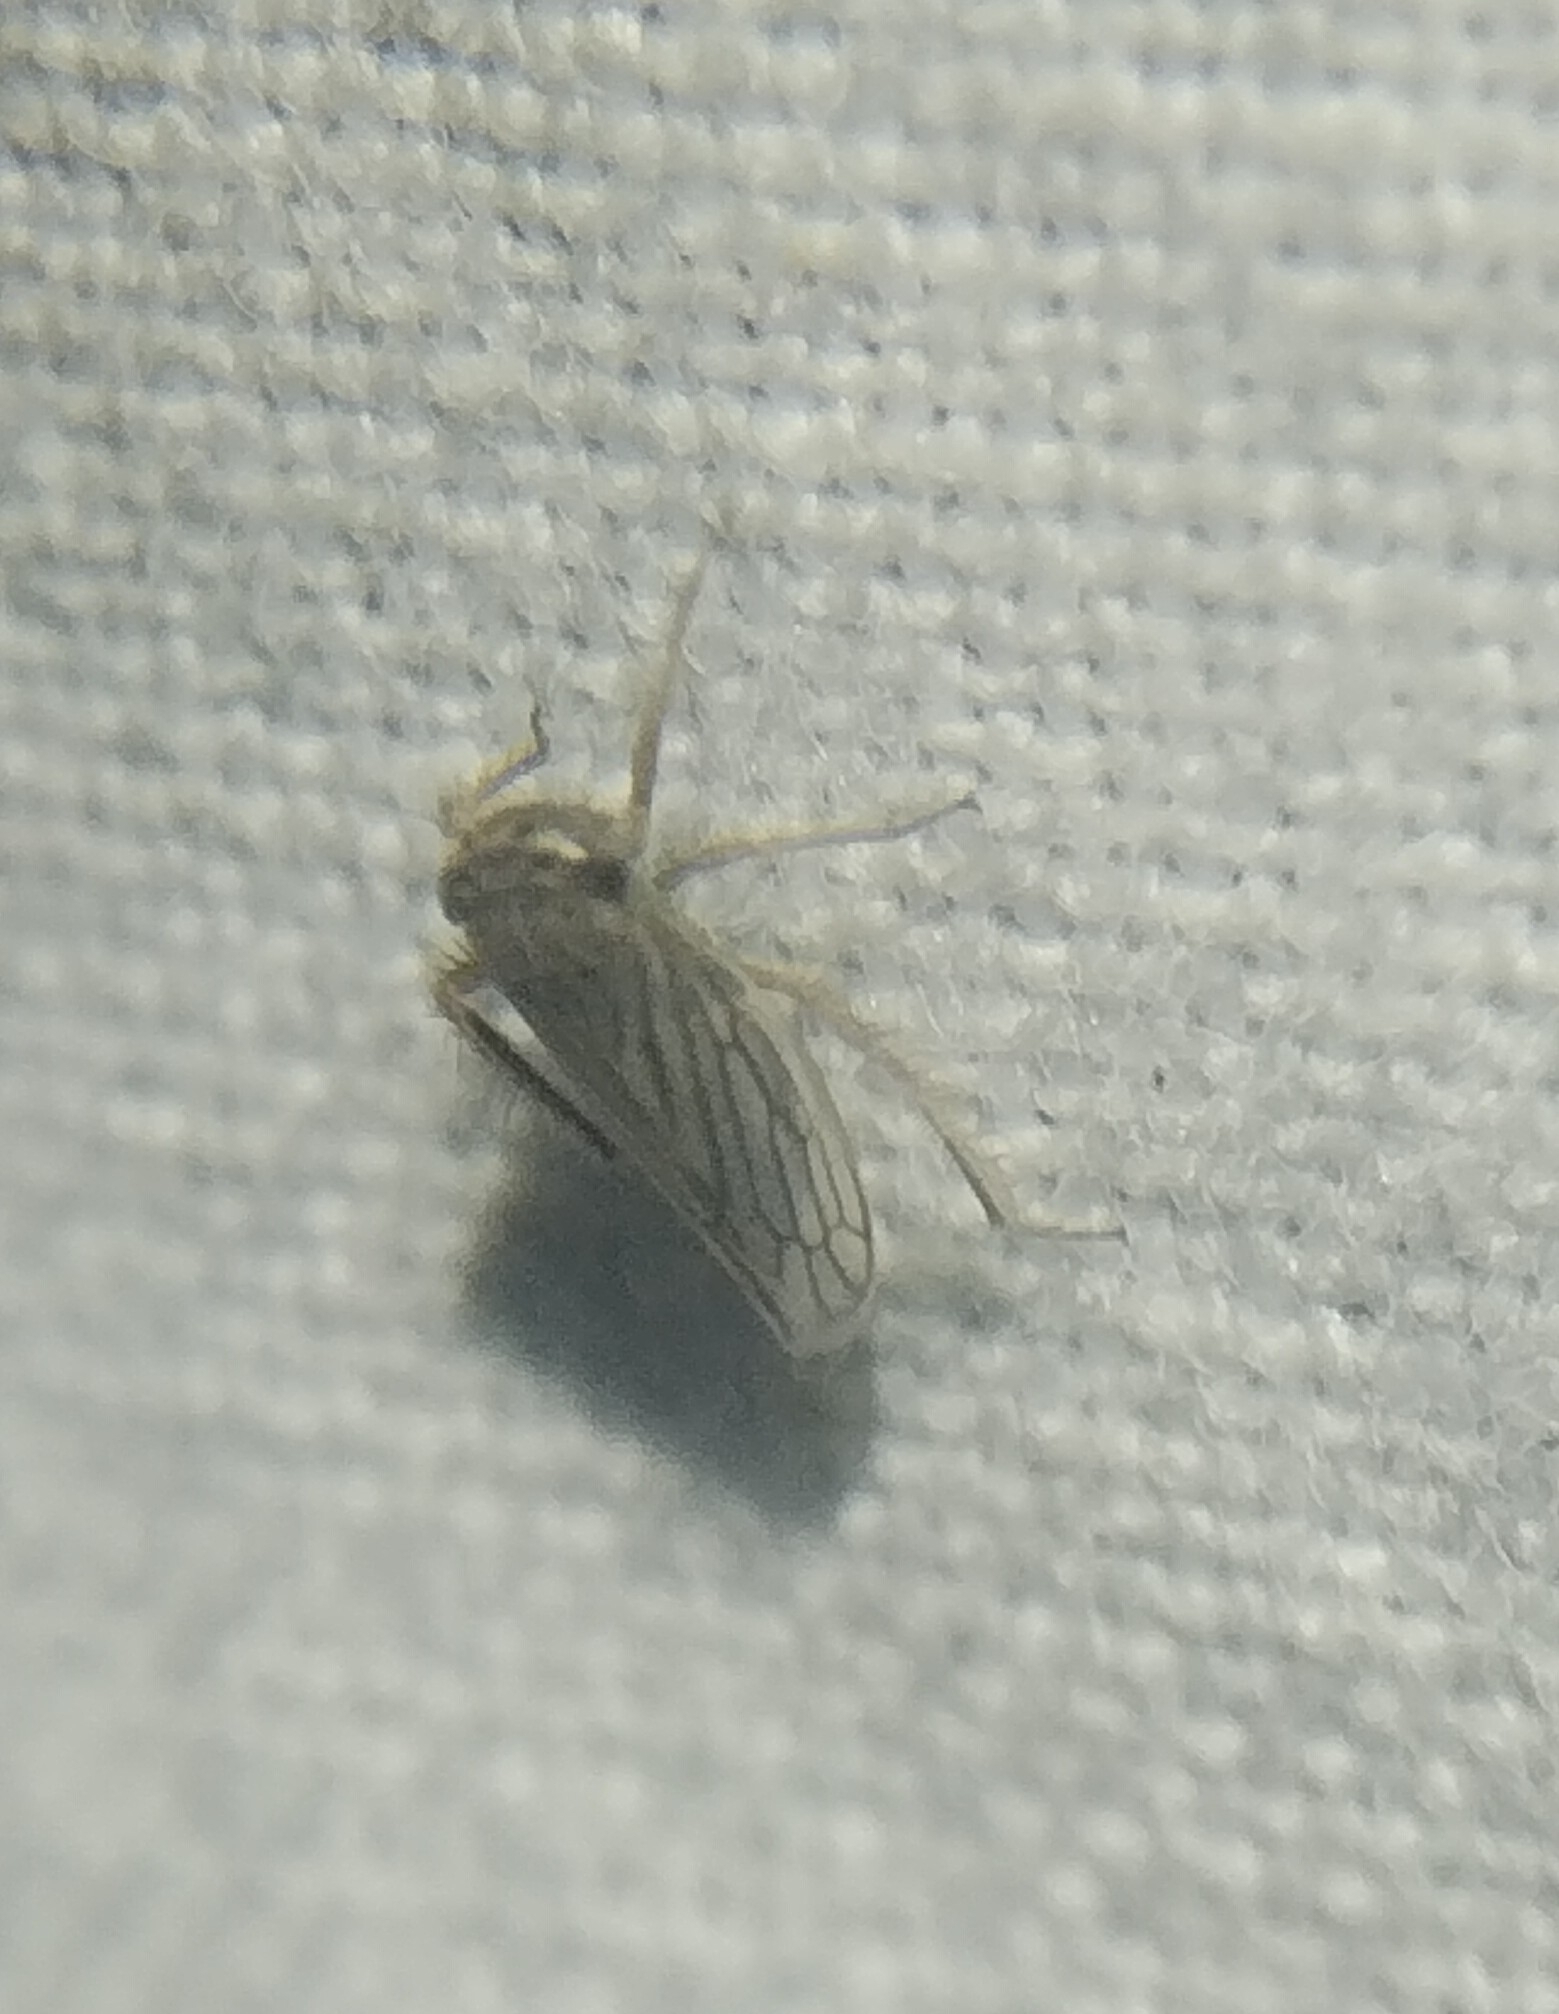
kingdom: Animalia
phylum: Arthropoda
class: Insecta
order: Hemiptera
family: Cicadellidae
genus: Exitianus
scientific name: Exitianus exitiosus
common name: Gray lawn leafhopper
